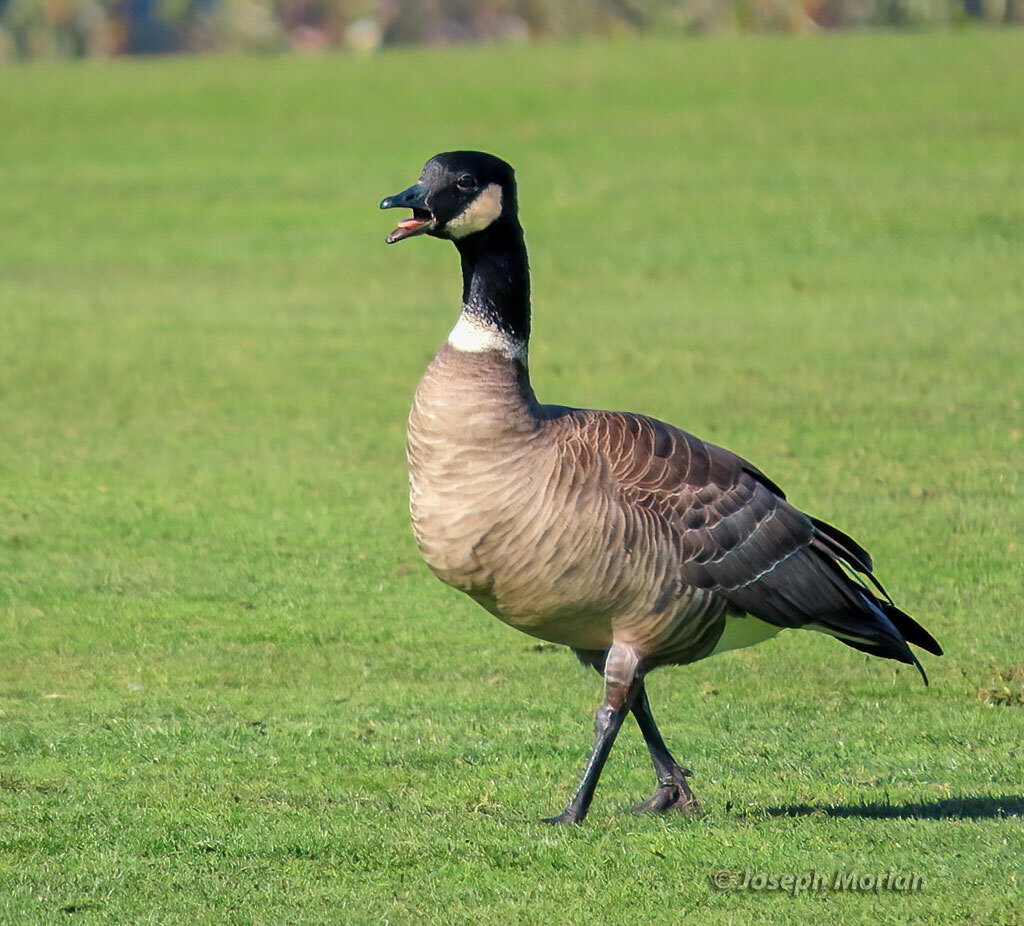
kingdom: Animalia
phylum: Chordata
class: Aves
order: Anseriformes
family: Anatidae
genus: Branta
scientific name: Branta hutchinsii
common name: Cackling goose
